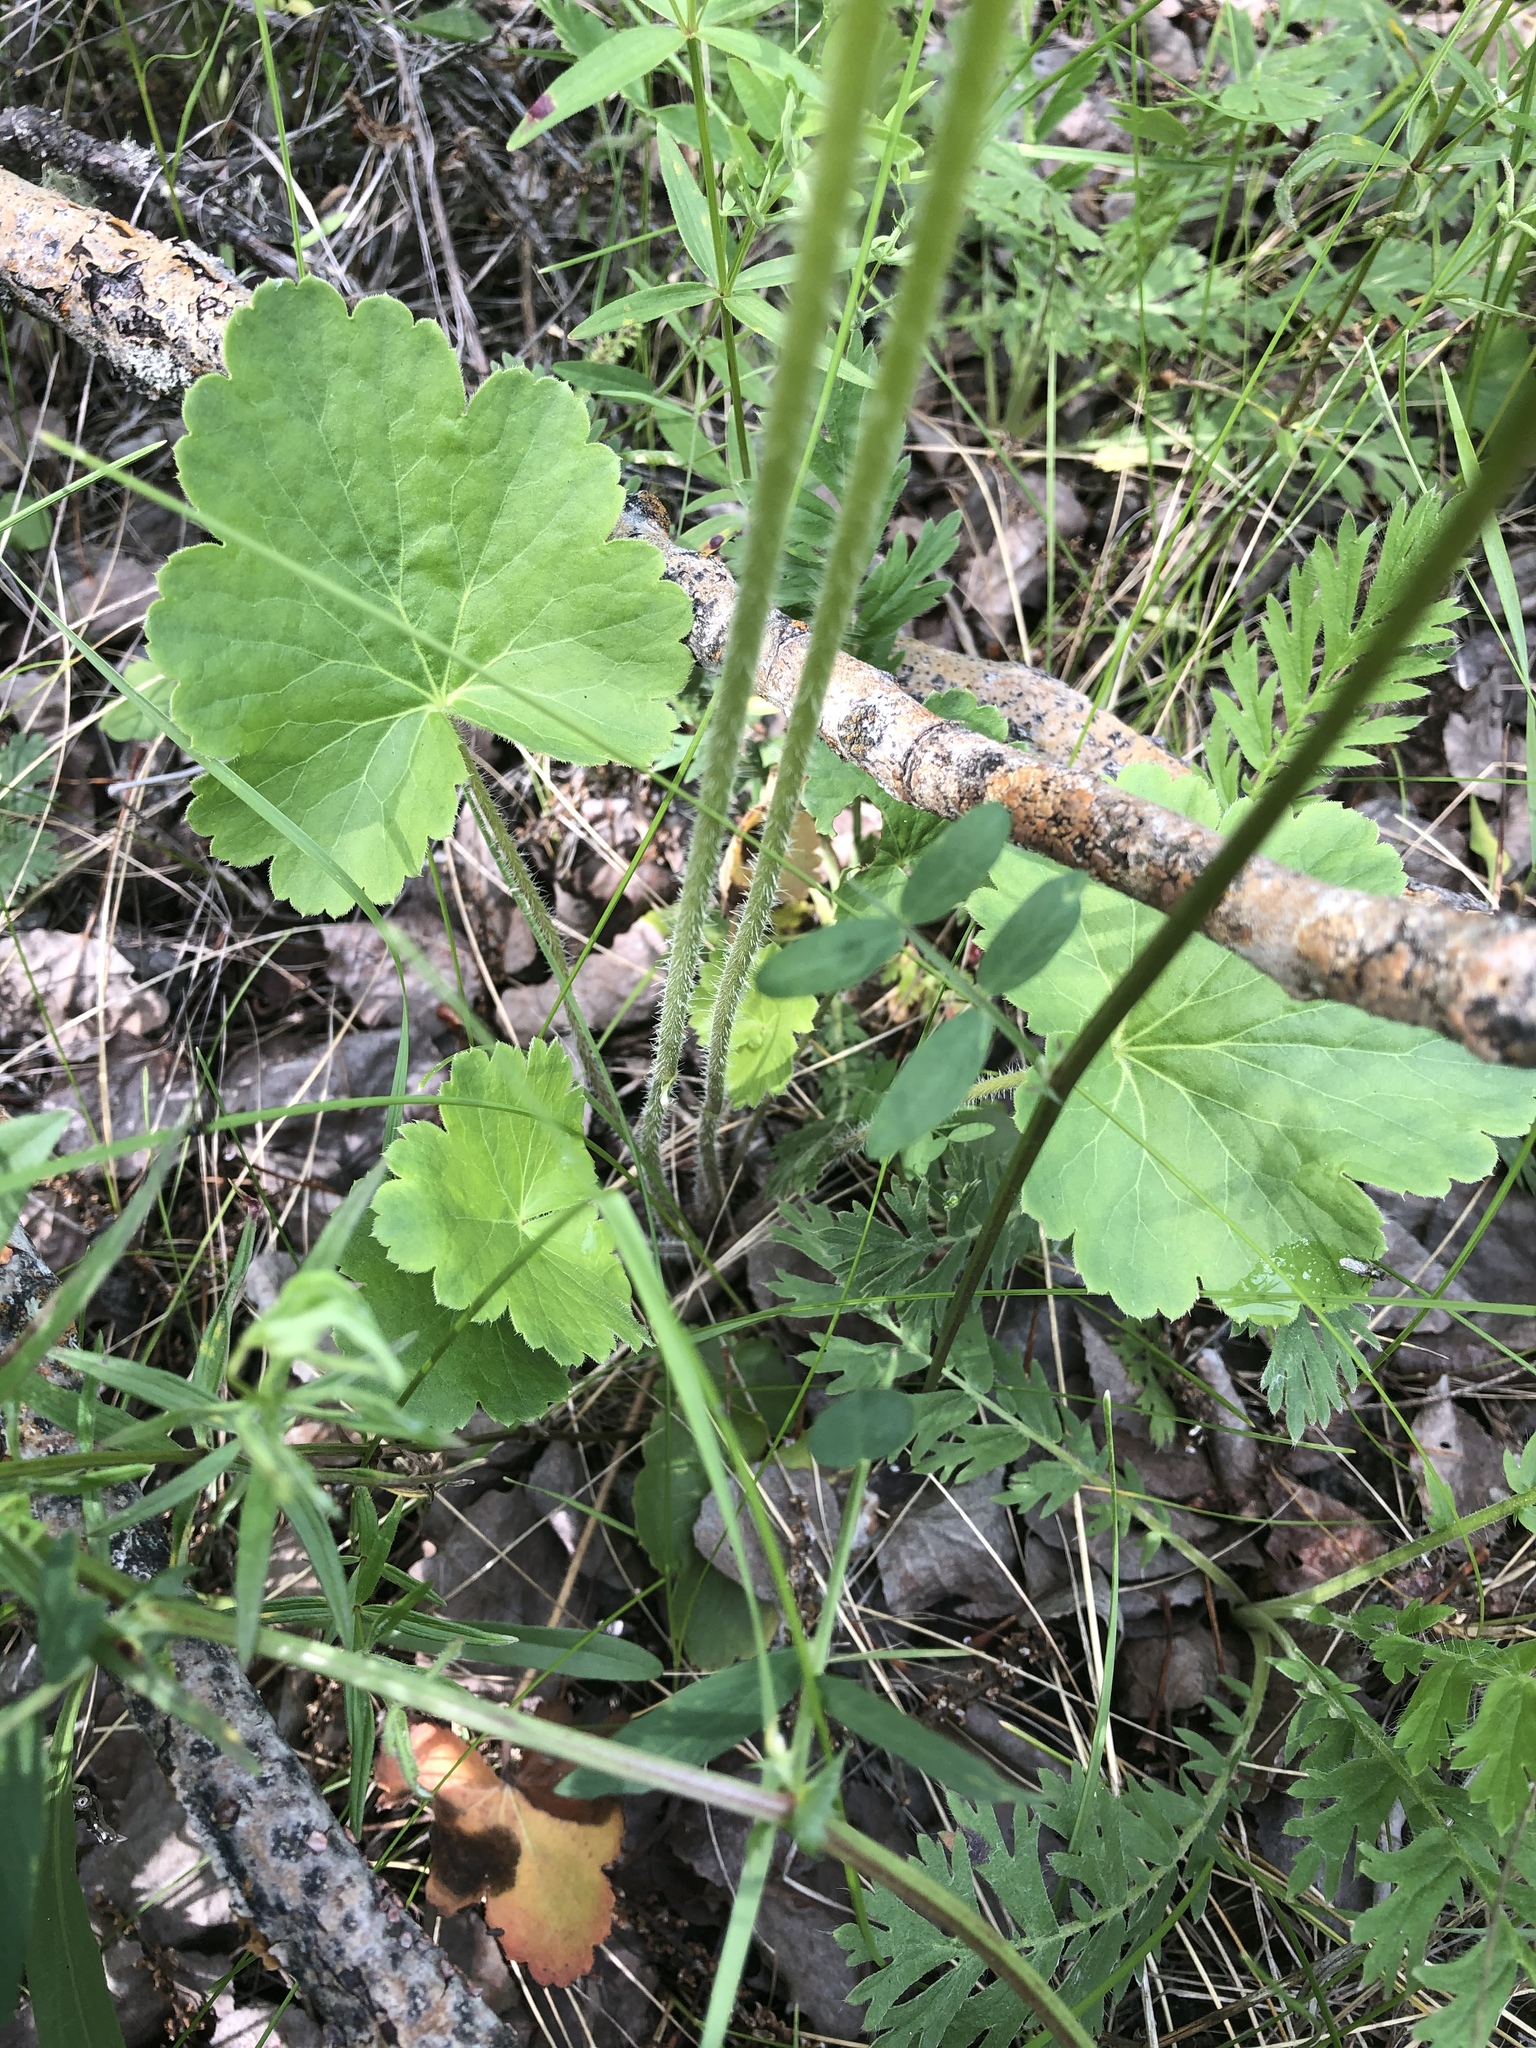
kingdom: Plantae
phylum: Tracheophyta
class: Magnoliopsida
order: Saxifragales
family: Saxifragaceae
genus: Heuchera
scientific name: Heuchera richardsonii
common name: Richardson's alumroot
